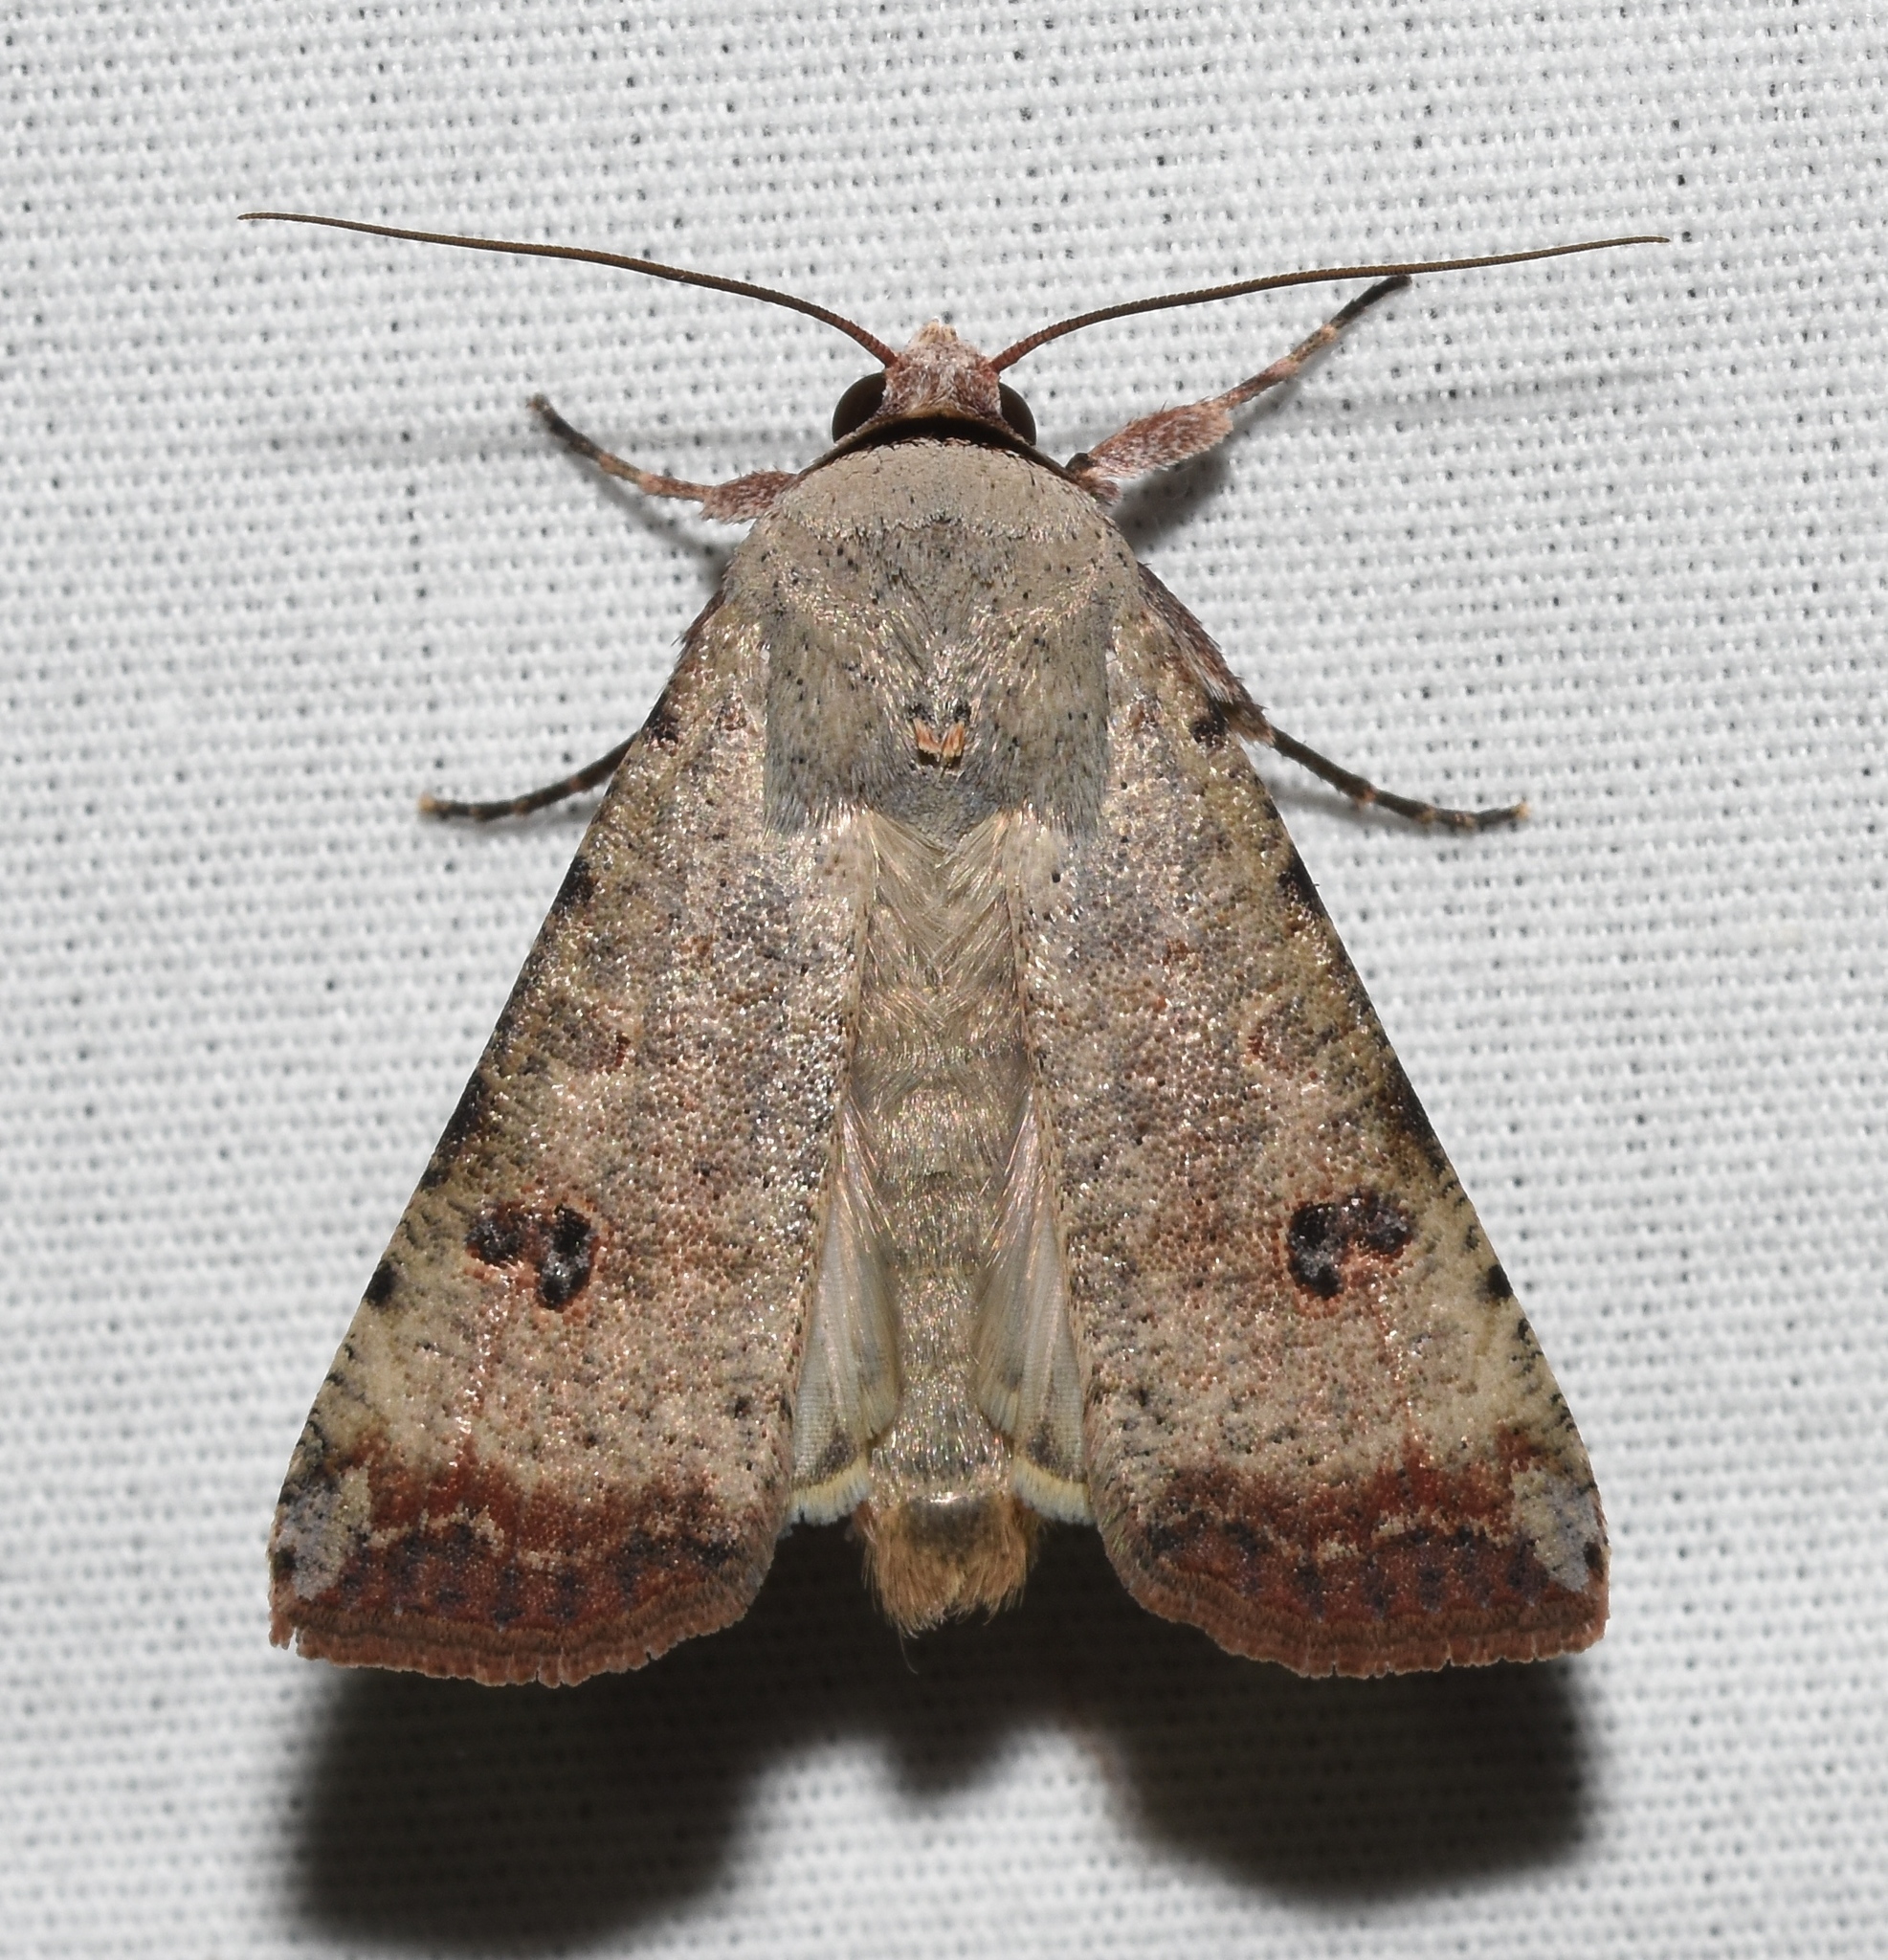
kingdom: Animalia
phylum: Arthropoda
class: Insecta
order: Lepidoptera
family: Noctuidae
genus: Anicla
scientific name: Anicla infecta
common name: Green cutworm
